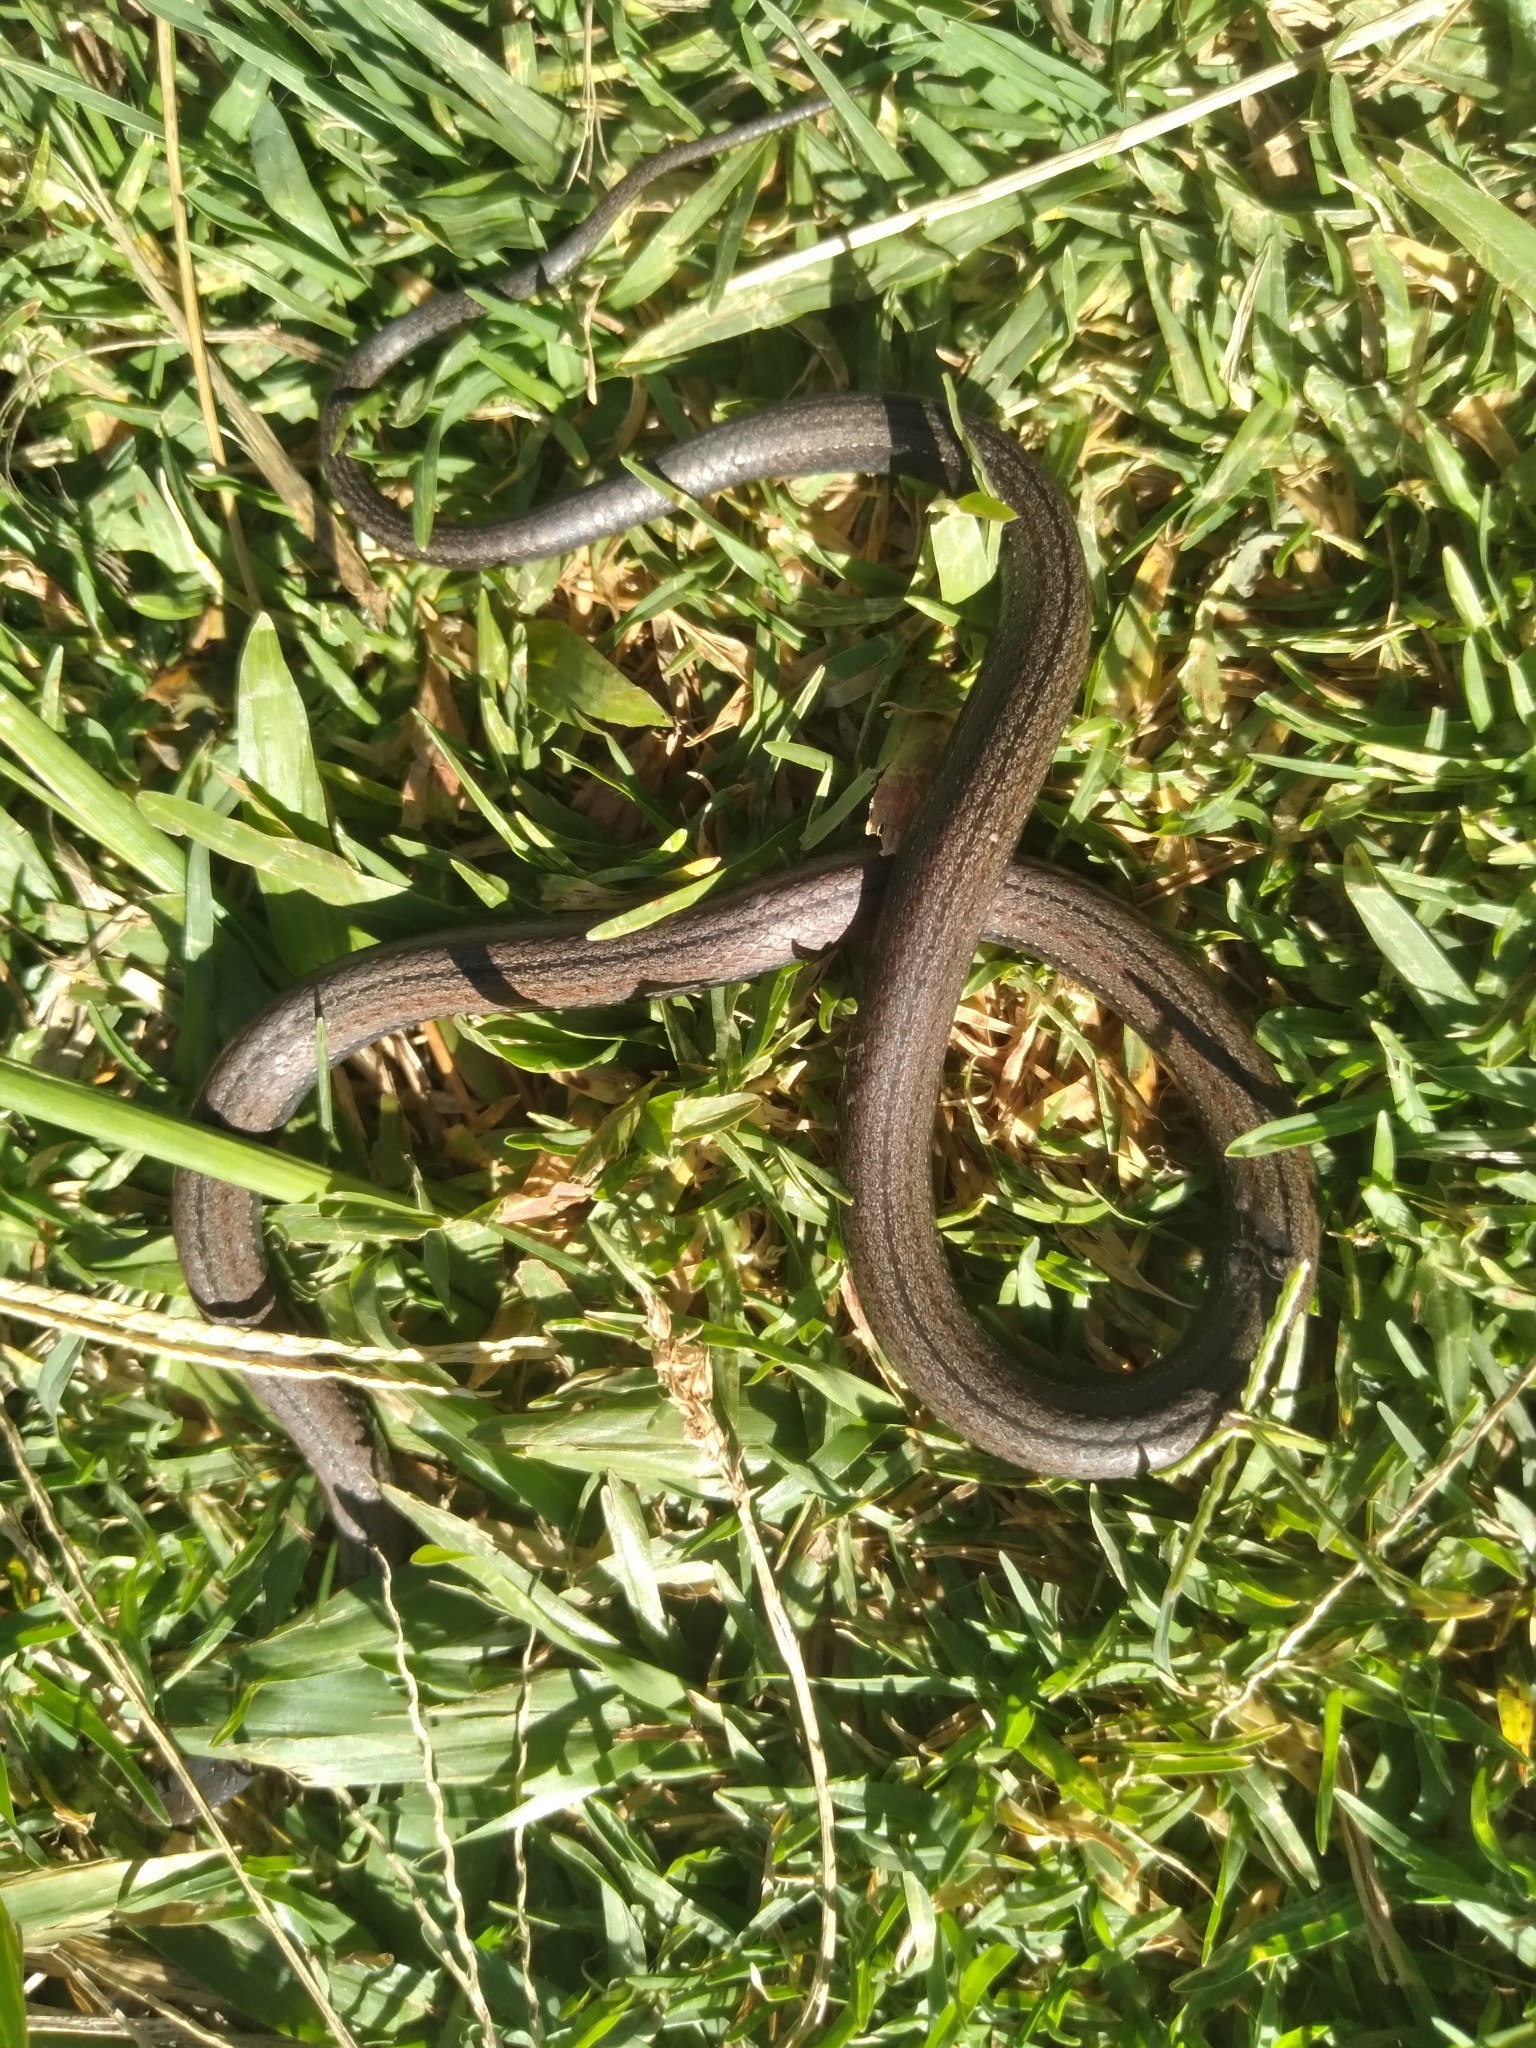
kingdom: Animalia
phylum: Chordata
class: Squamata
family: Colubridae
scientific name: Colubridae
